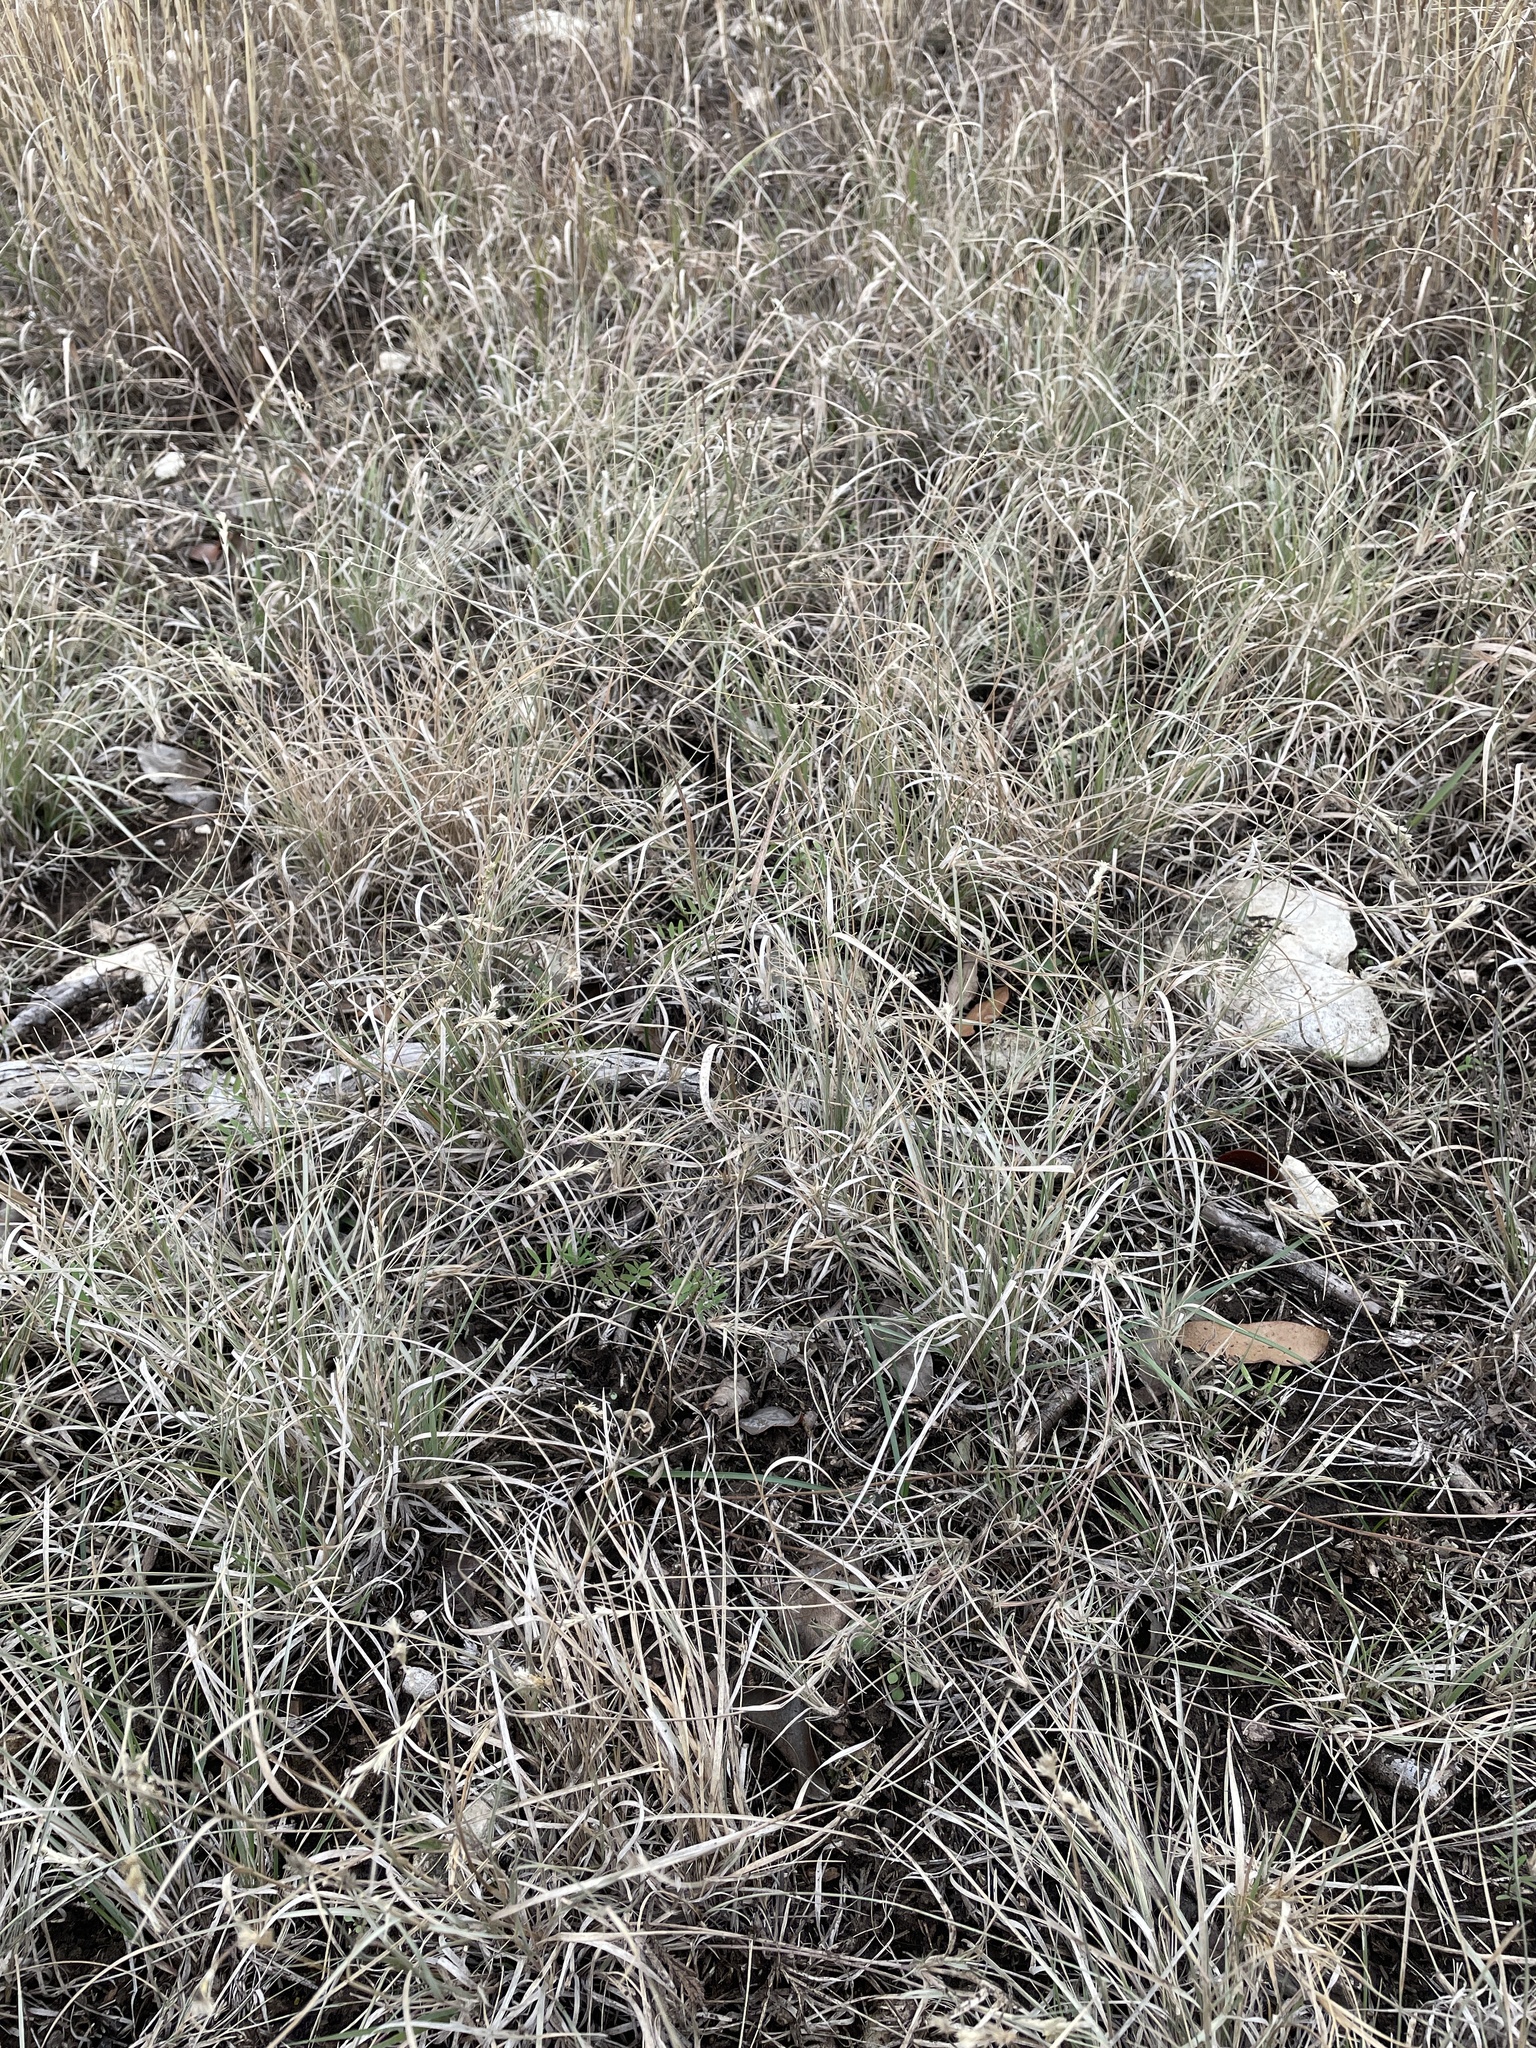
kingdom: Plantae
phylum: Tracheophyta
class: Liliopsida
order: Poales
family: Poaceae
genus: Hilaria
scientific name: Hilaria belangeri
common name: Curly-mesquite
